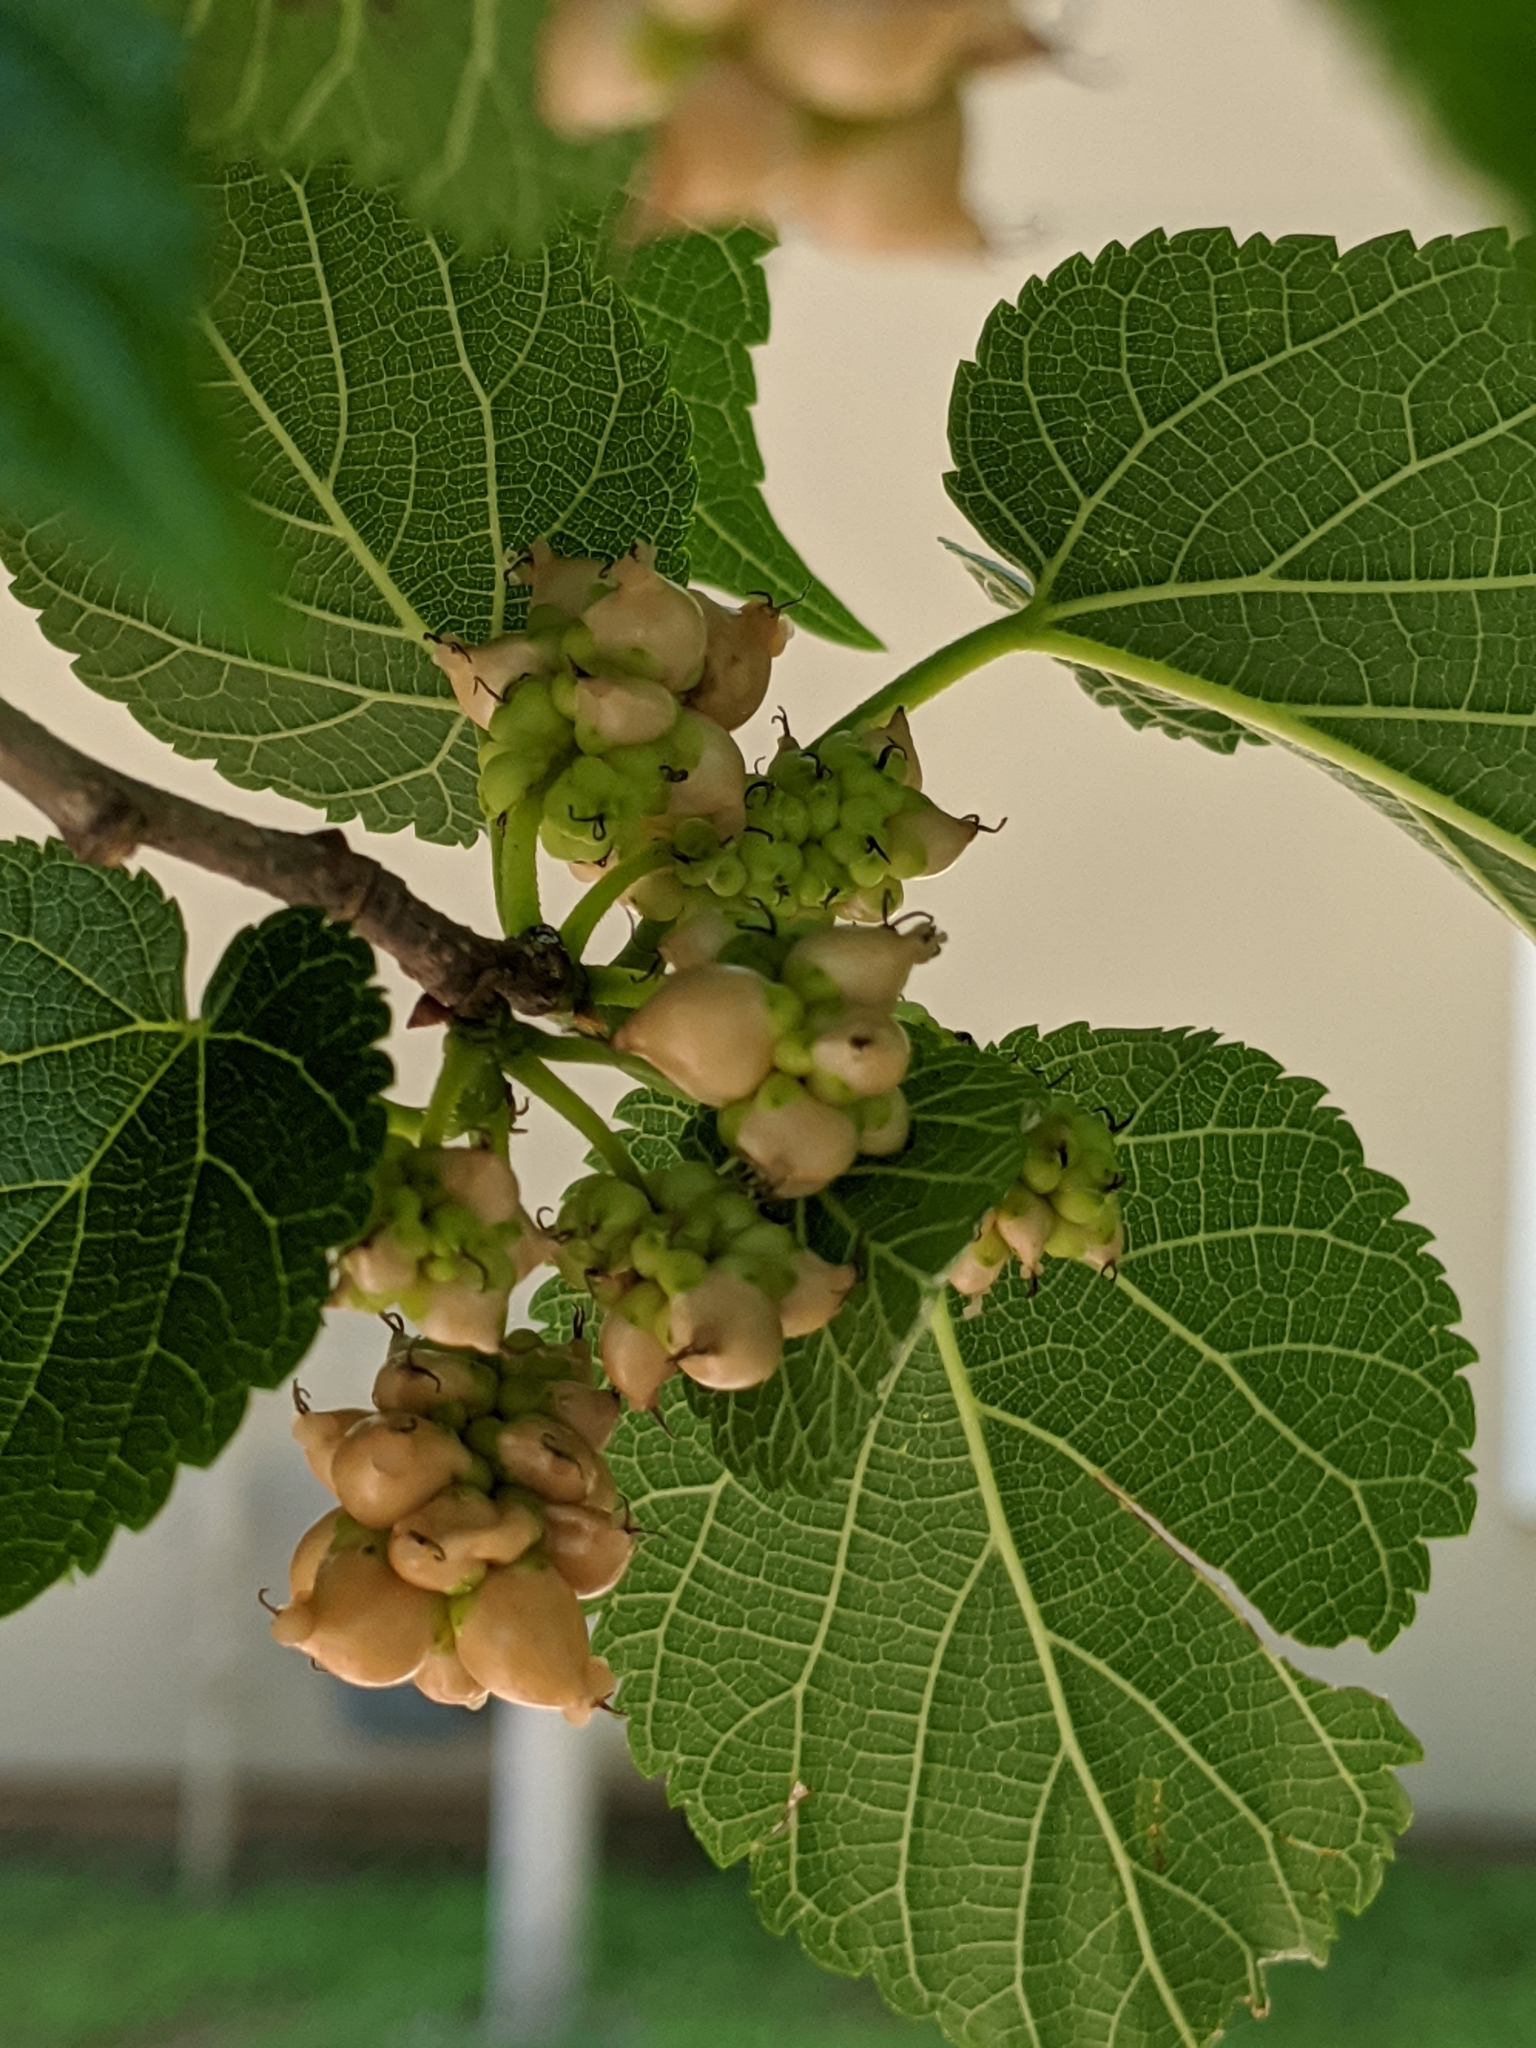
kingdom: Plantae
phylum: Tracheophyta
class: Magnoliopsida
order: Rosales
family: Moraceae
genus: Morus
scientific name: Morus alba
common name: White mulberry
